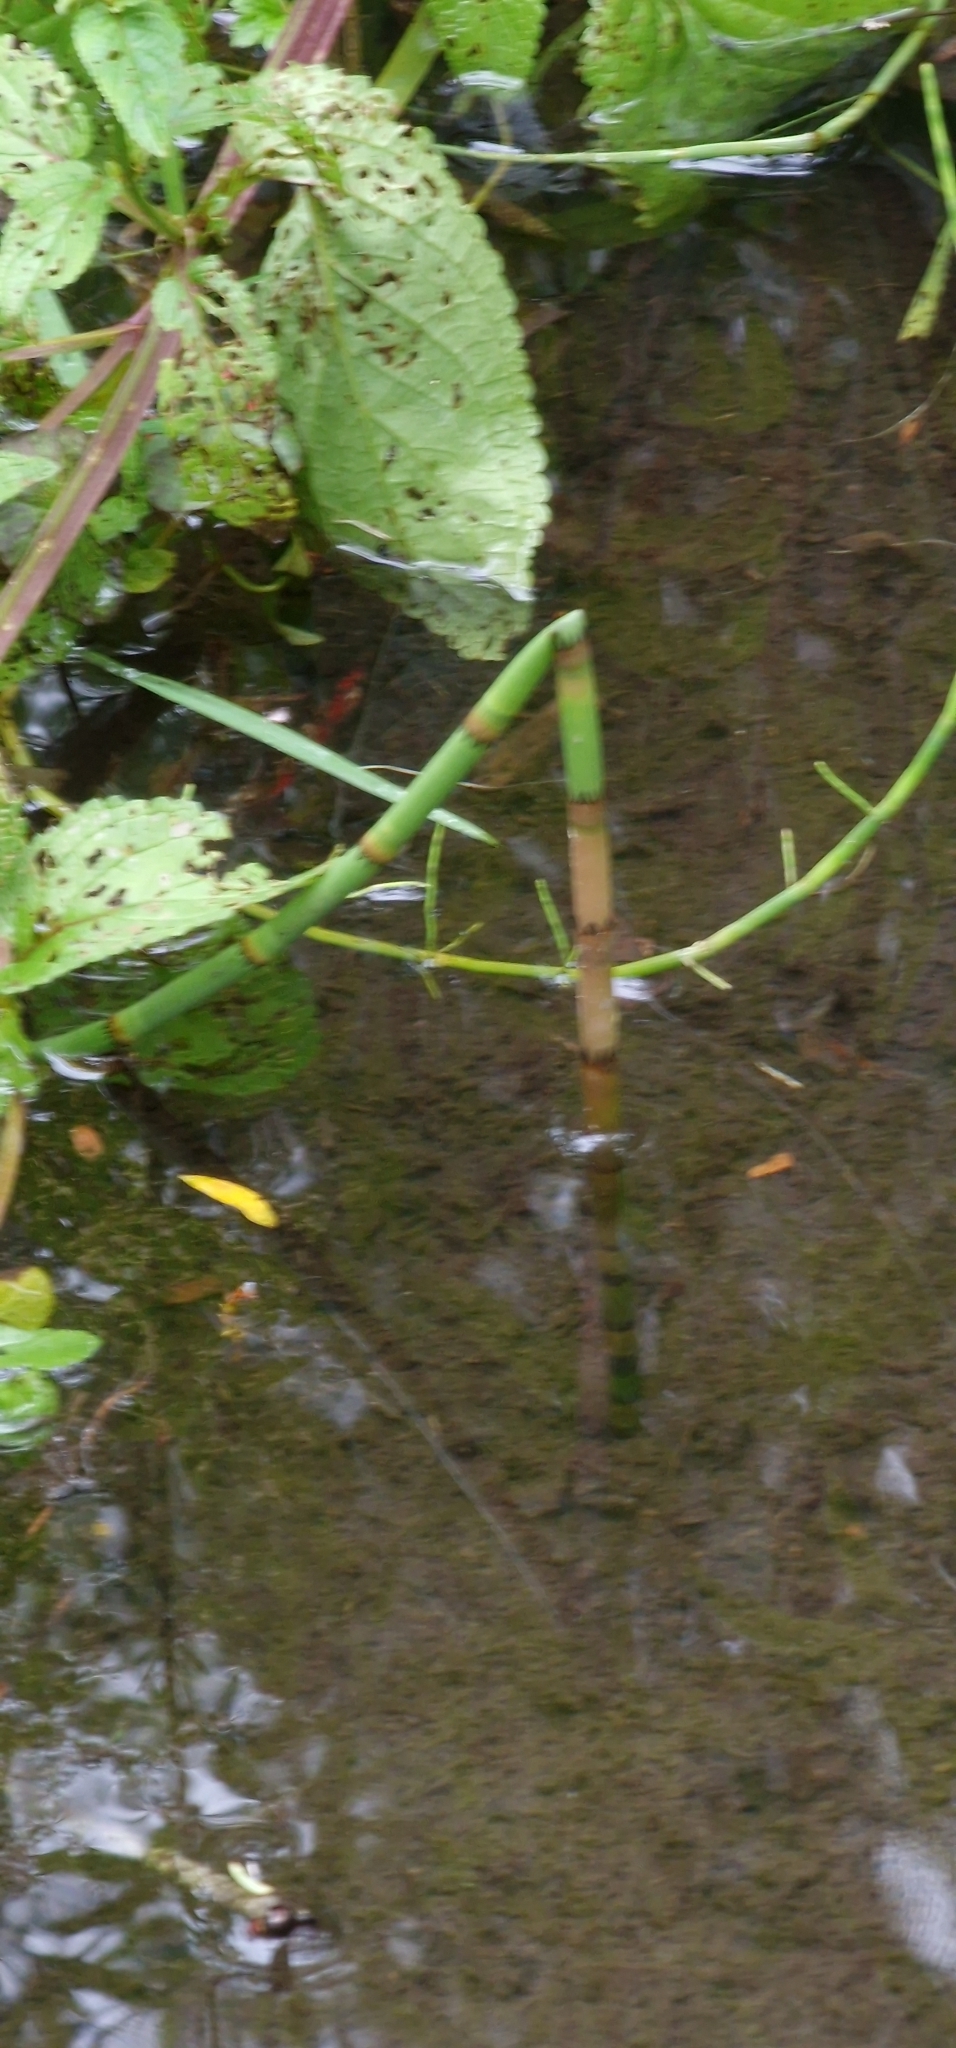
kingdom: Plantae
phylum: Tracheophyta
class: Polypodiopsida
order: Equisetales
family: Equisetaceae
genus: Equisetum
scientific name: Equisetum fluviatile
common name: Water horsetail
